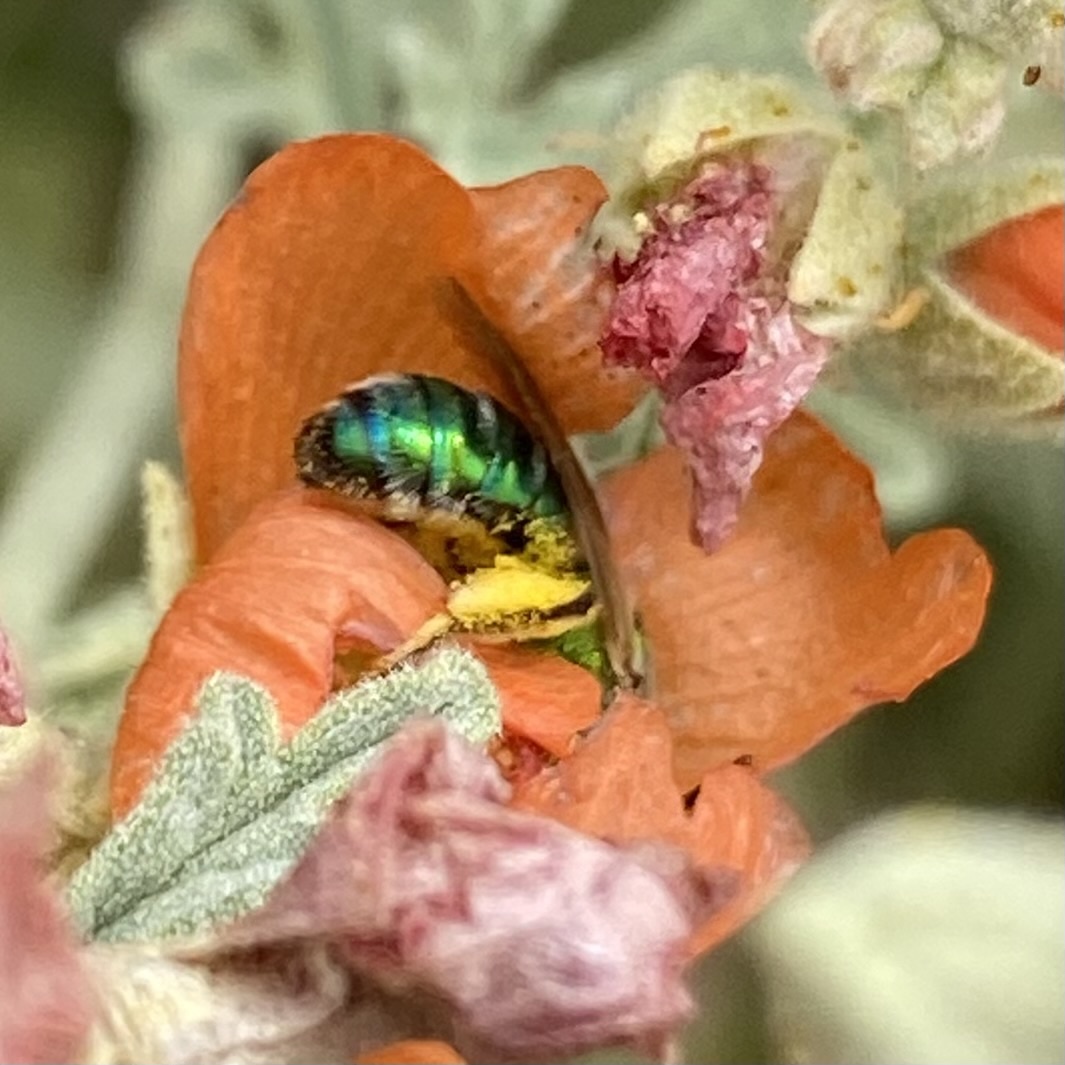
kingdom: Animalia
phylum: Arthropoda
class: Insecta
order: Hymenoptera
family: Halictidae
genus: Agapostemon
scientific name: Agapostemon
